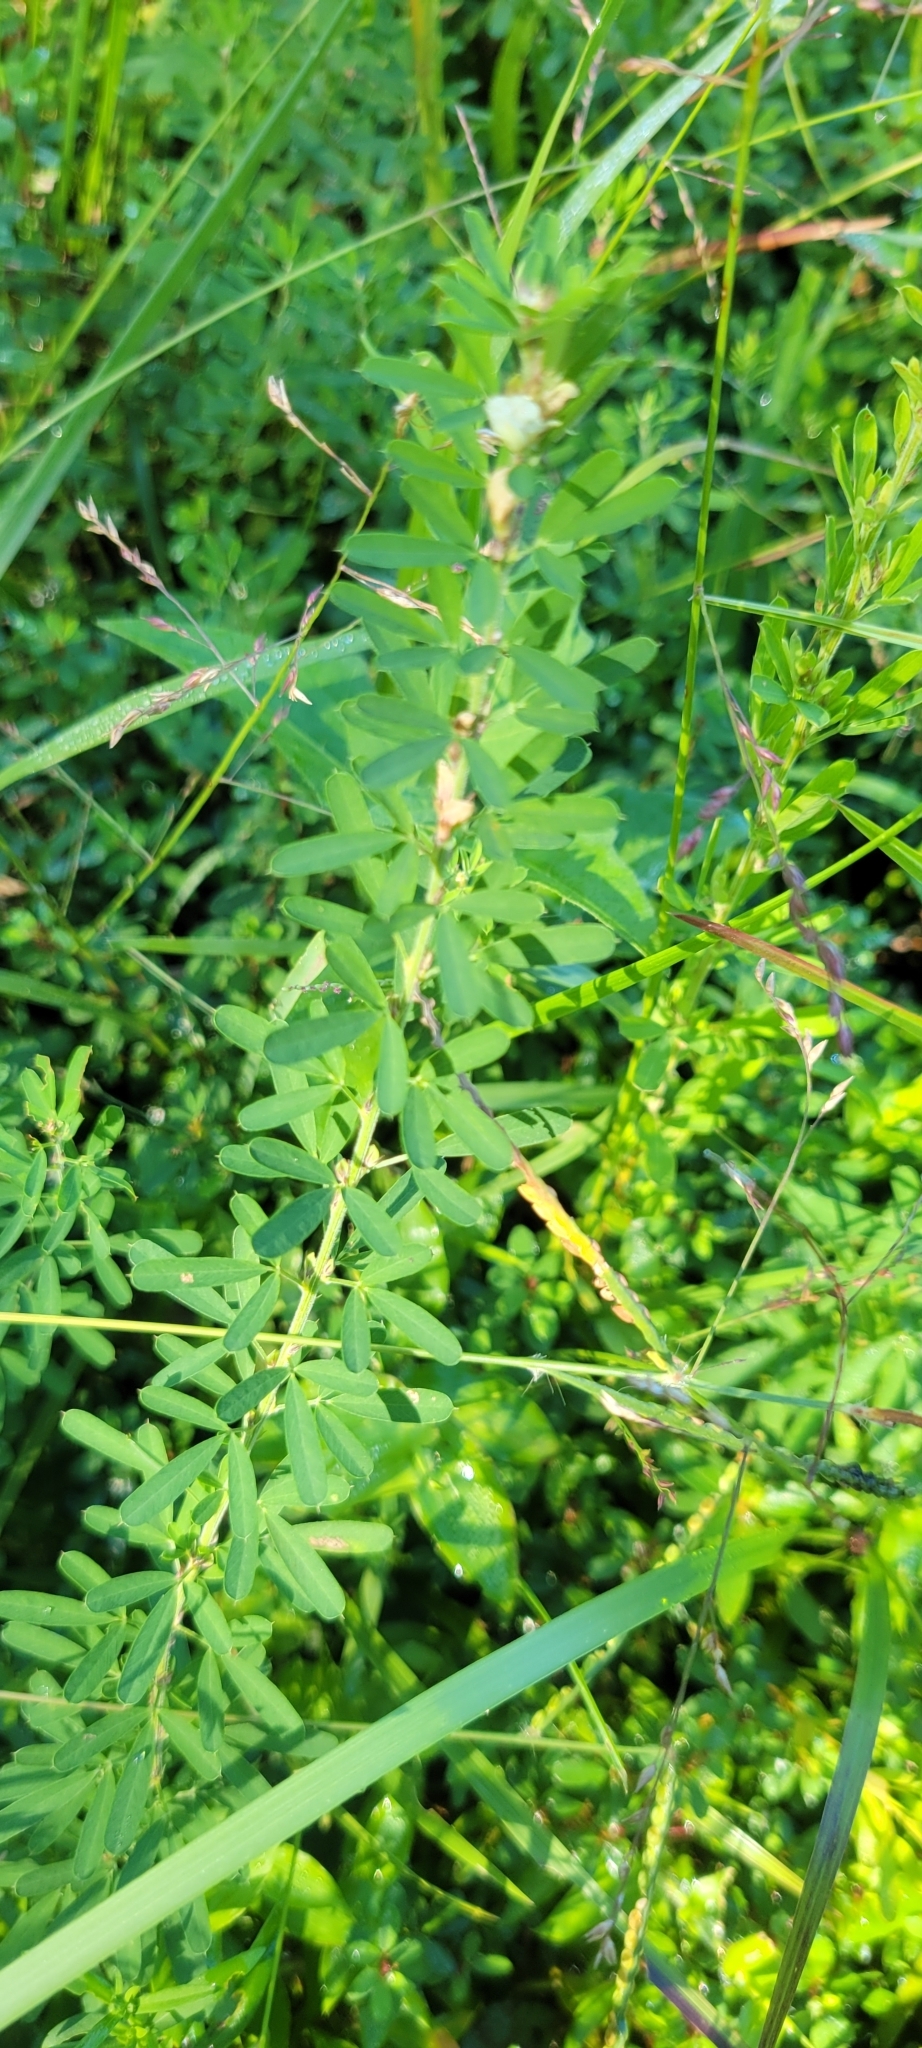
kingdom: Plantae
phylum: Tracheophyta
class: Magnoliopsida
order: Fabales
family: Fabaceae
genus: Lespedeza
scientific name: Lespedeza cuneata
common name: Chinese bush-clover
